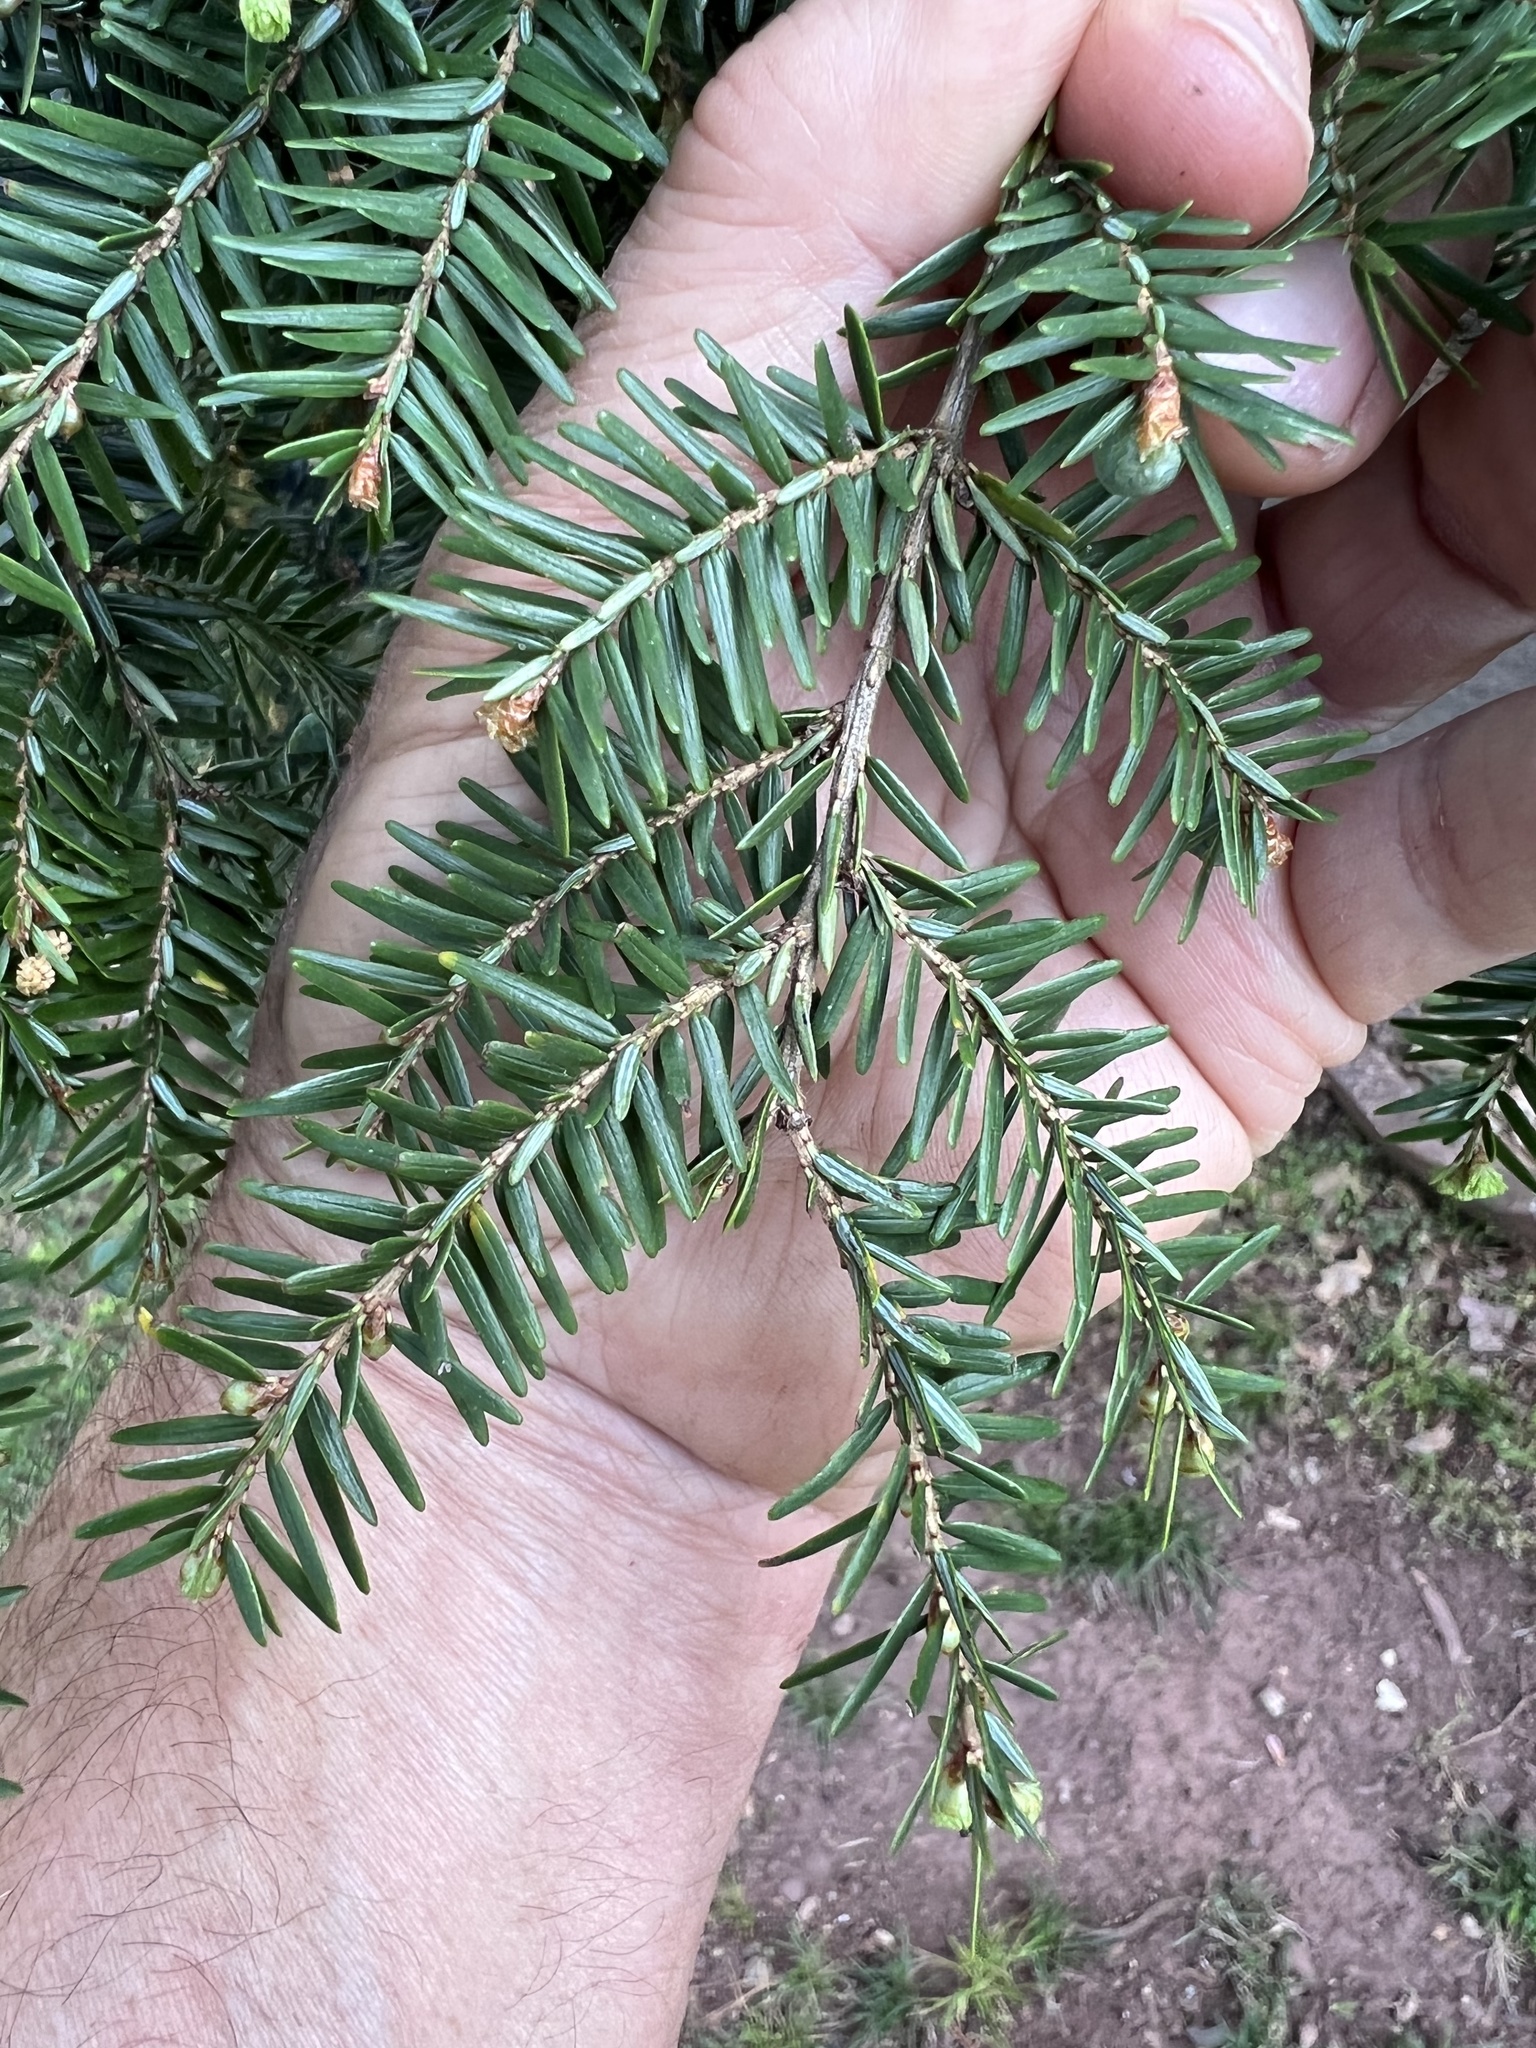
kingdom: Plantae
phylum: Tracheophyta
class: Pinopsida
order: Pinales
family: Pinaceae
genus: Tsuga
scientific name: Tsuga canadensis
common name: Eastern hemlock
